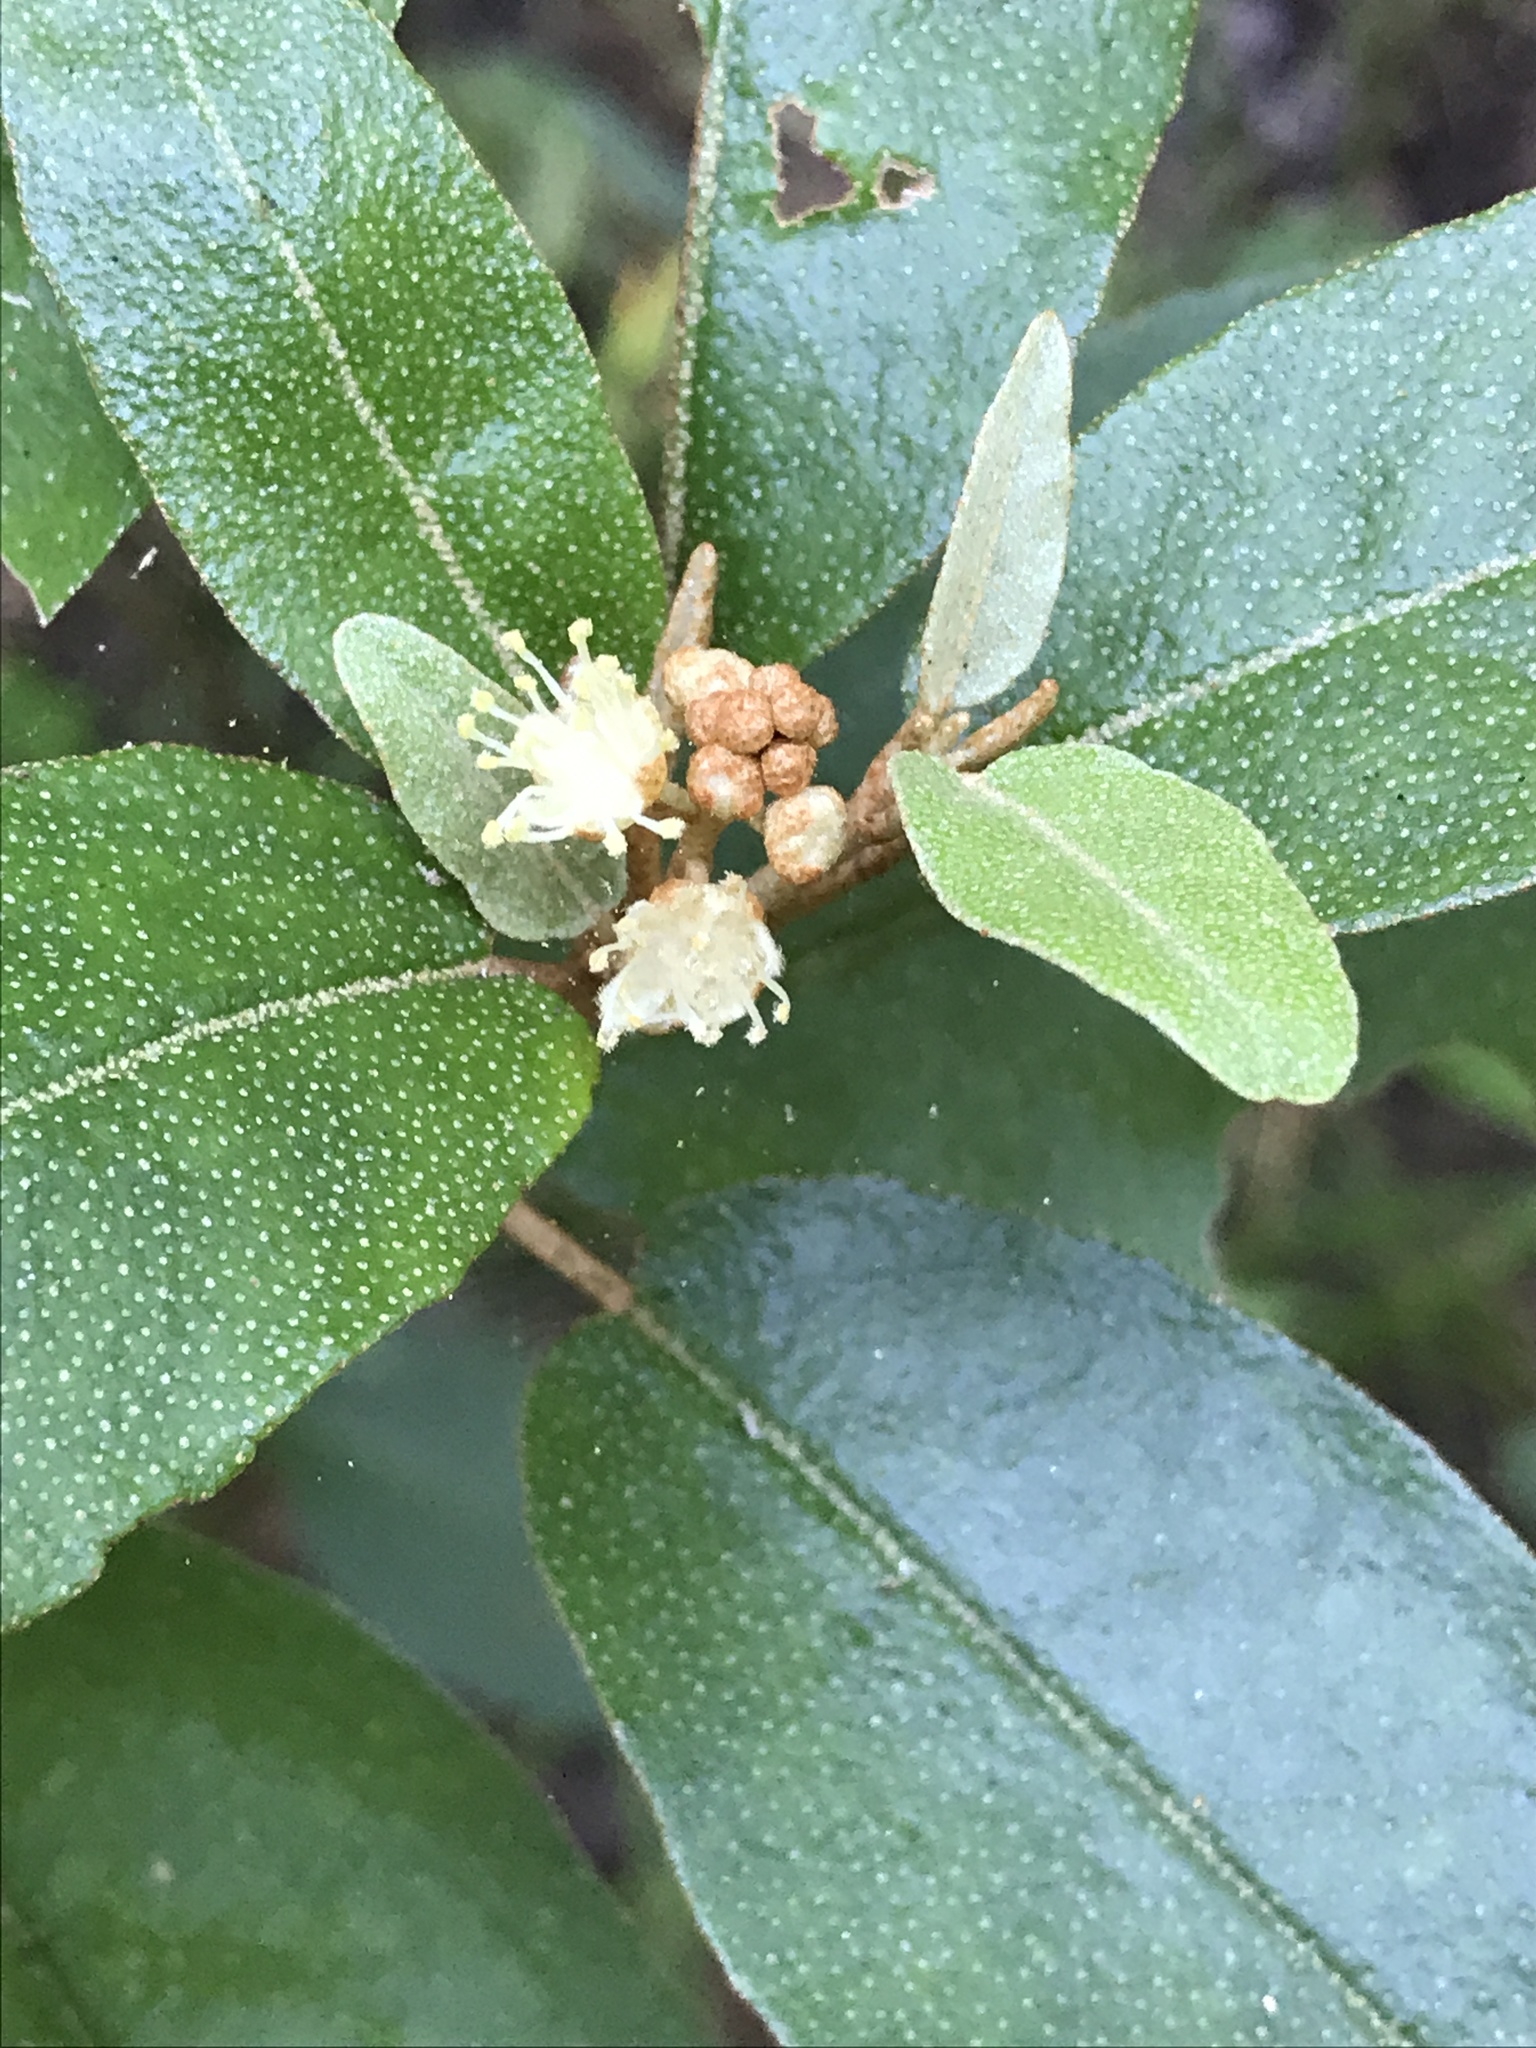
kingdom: Plantae
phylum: Tracheophyta
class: Magnoliopsida
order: Malpighiales
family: Euphorbiaceae
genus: Croton
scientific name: Croton alabamensis
